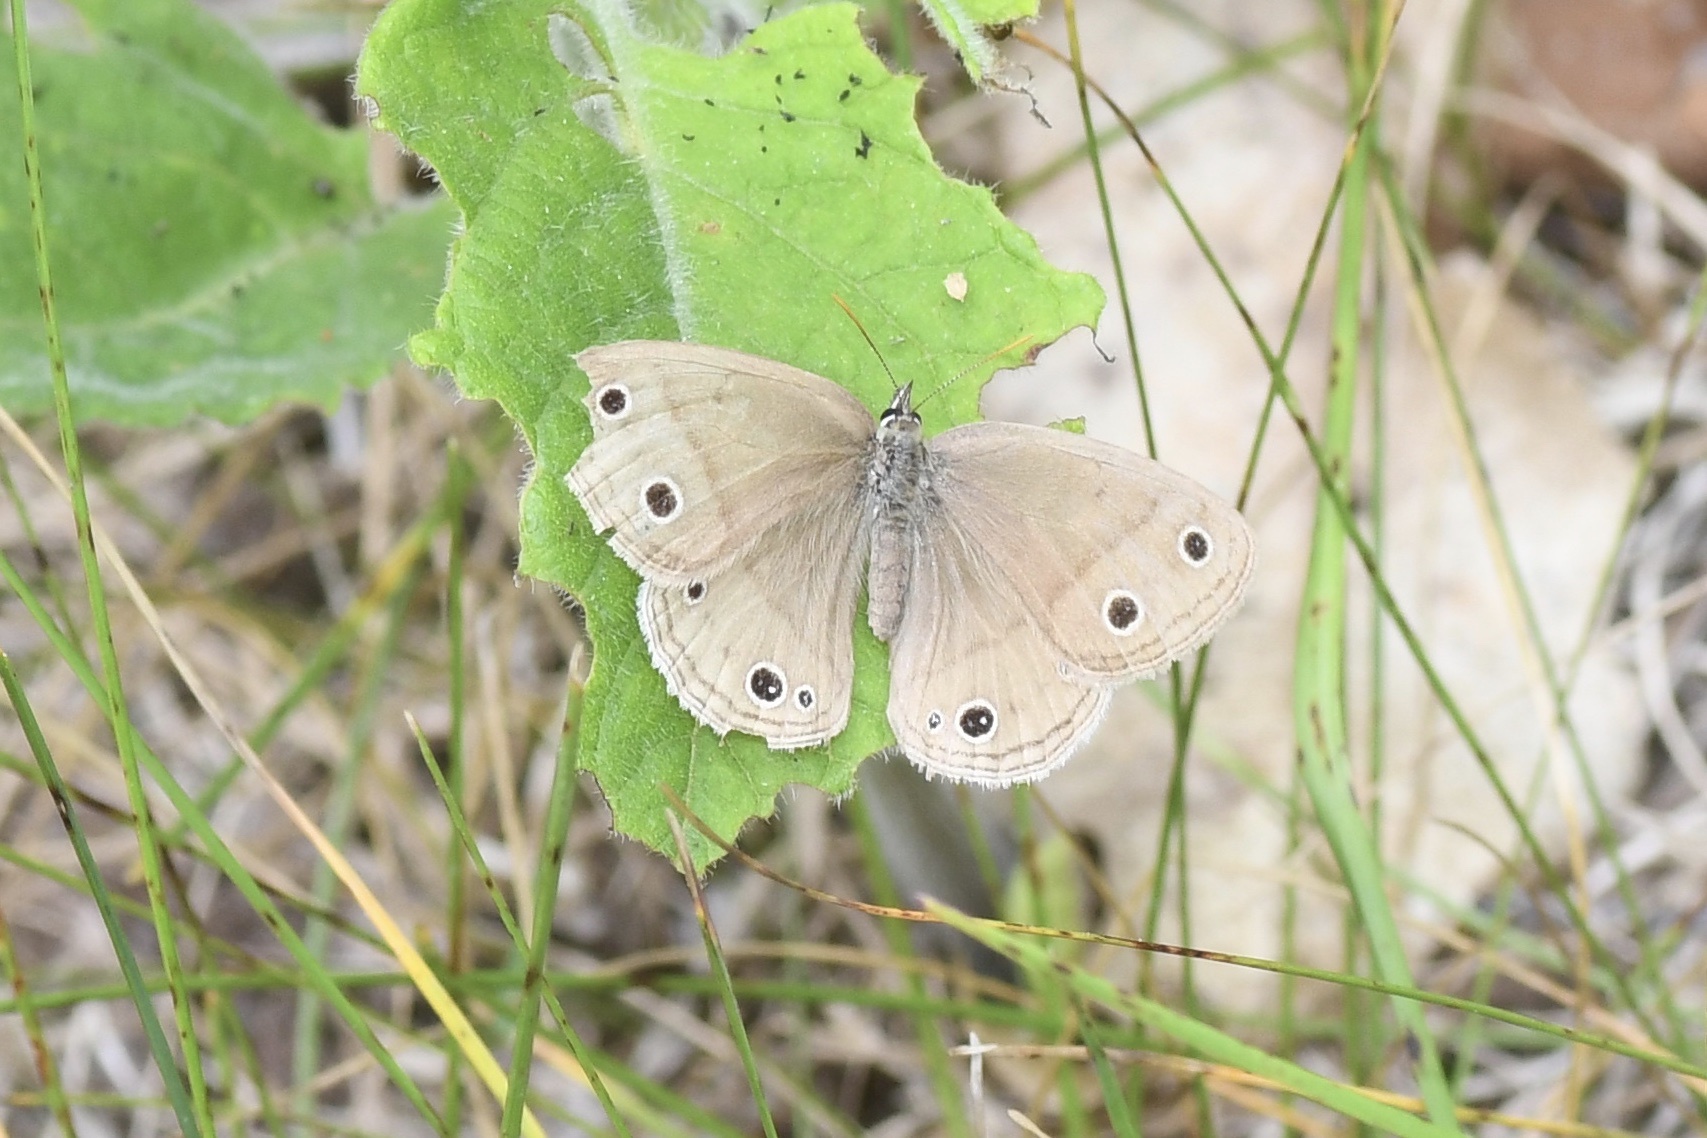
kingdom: Animalia
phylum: Arthropoda
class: Insecta
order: Lepidoptera
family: Nymphalidae
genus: Euptychia
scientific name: Euptychia cymela
